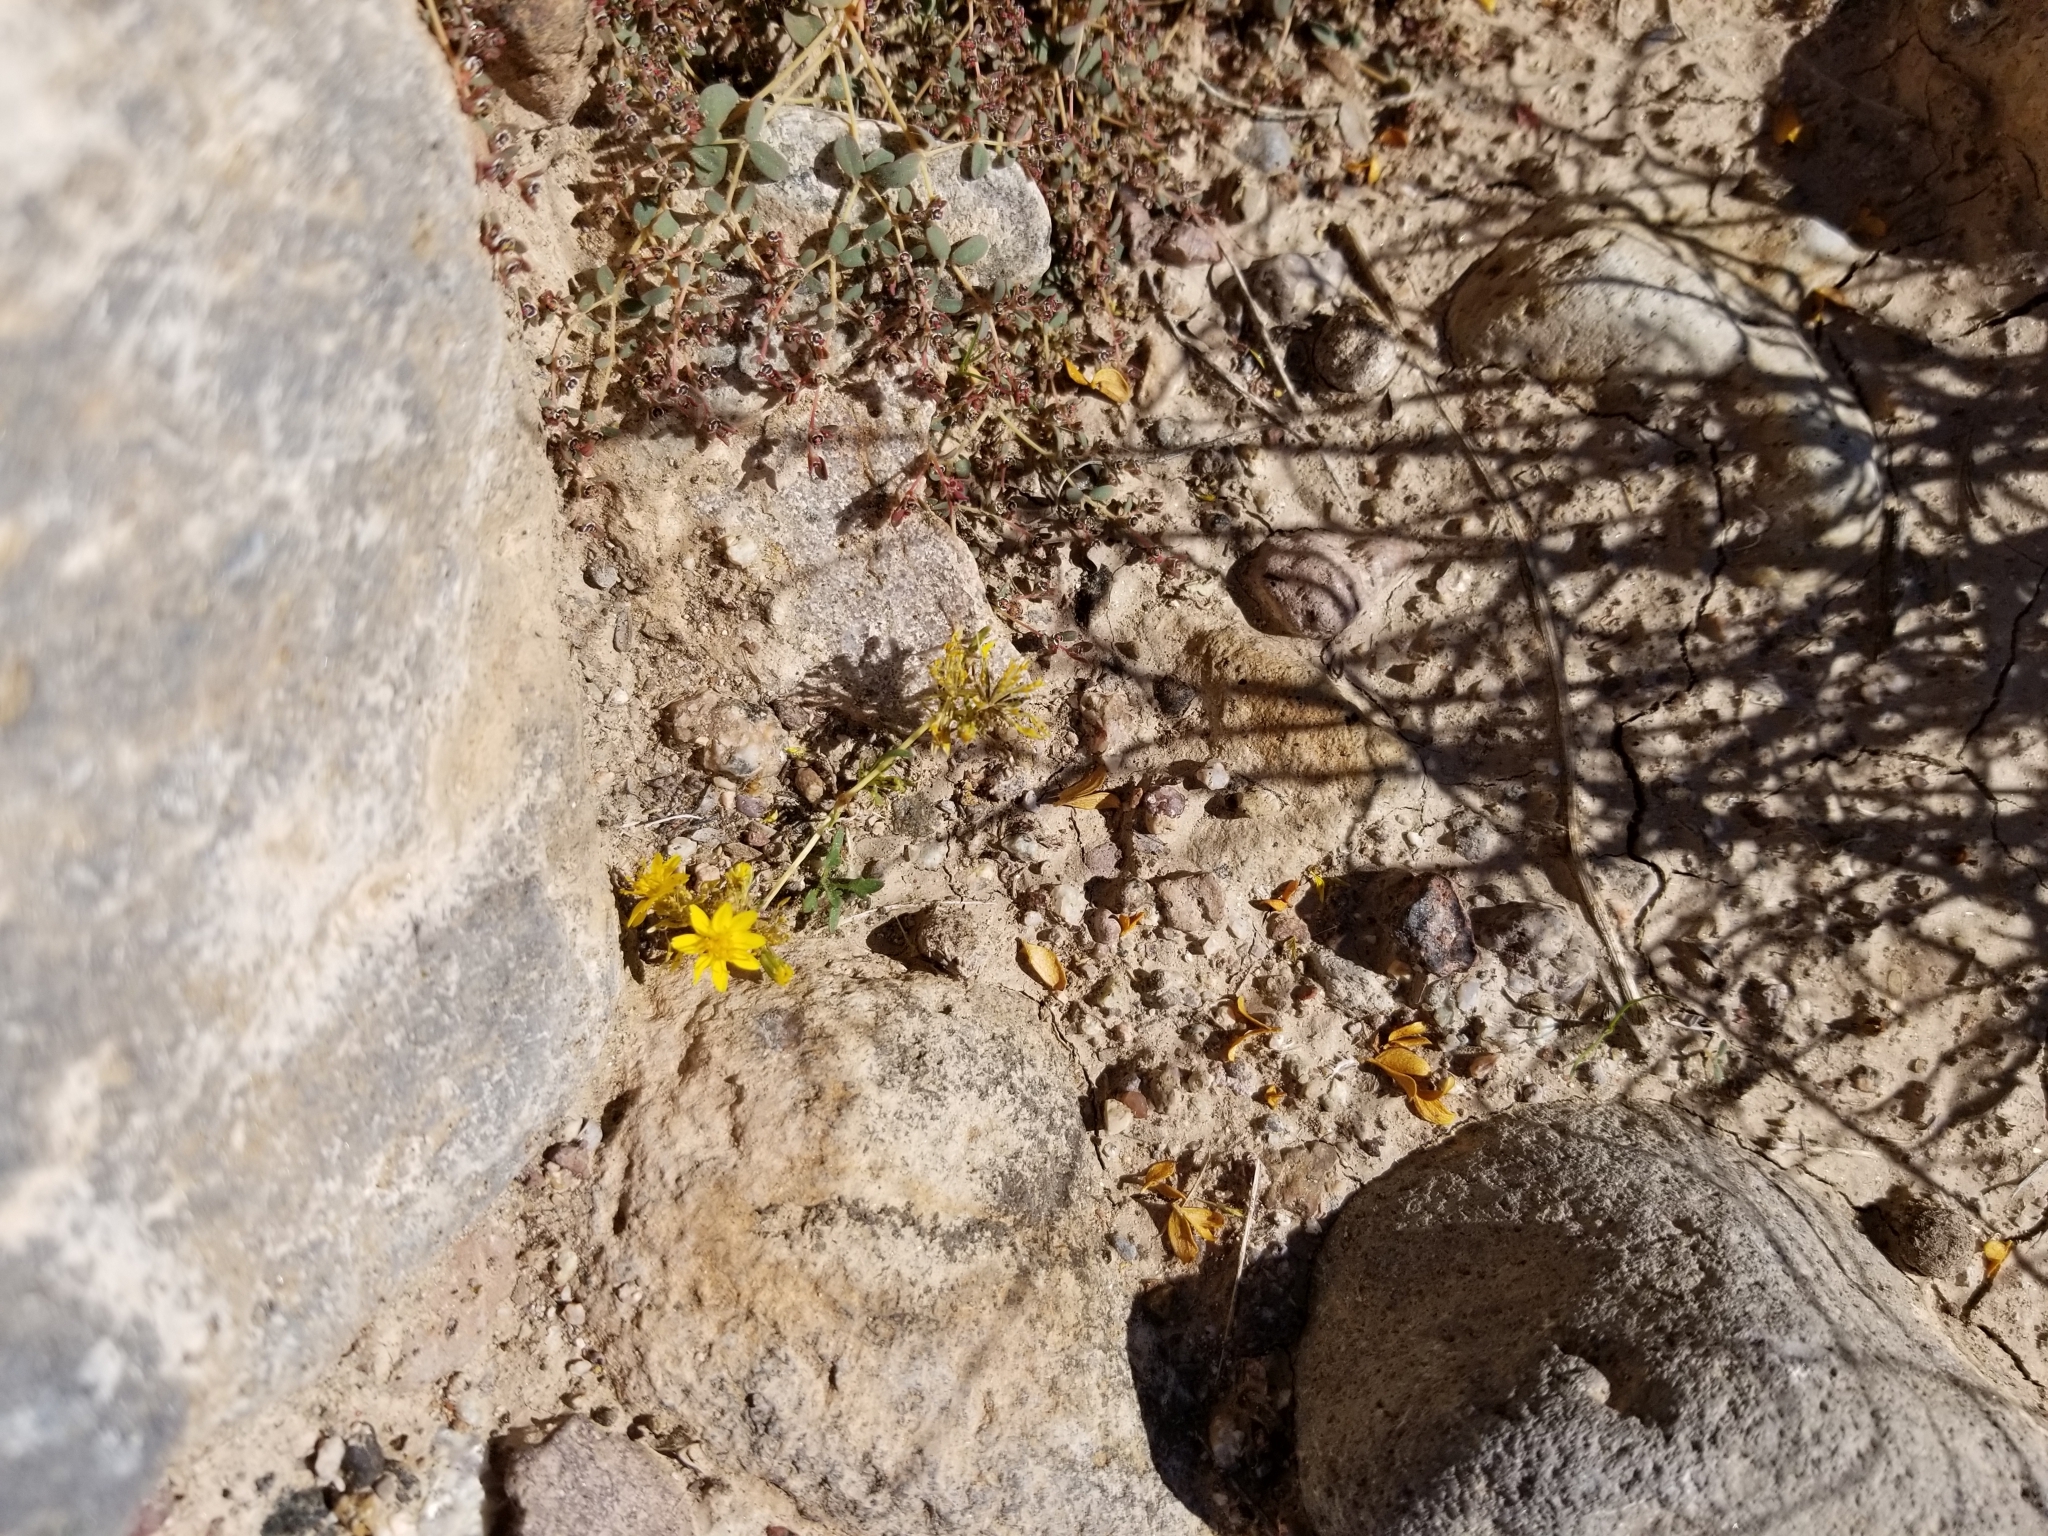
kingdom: Plantae
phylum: Tracheophyta
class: Magnoliopsida
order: Asterales
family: Asteraceae
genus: Pectis
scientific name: Pectis papposa
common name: Many-bristle chinchweed
